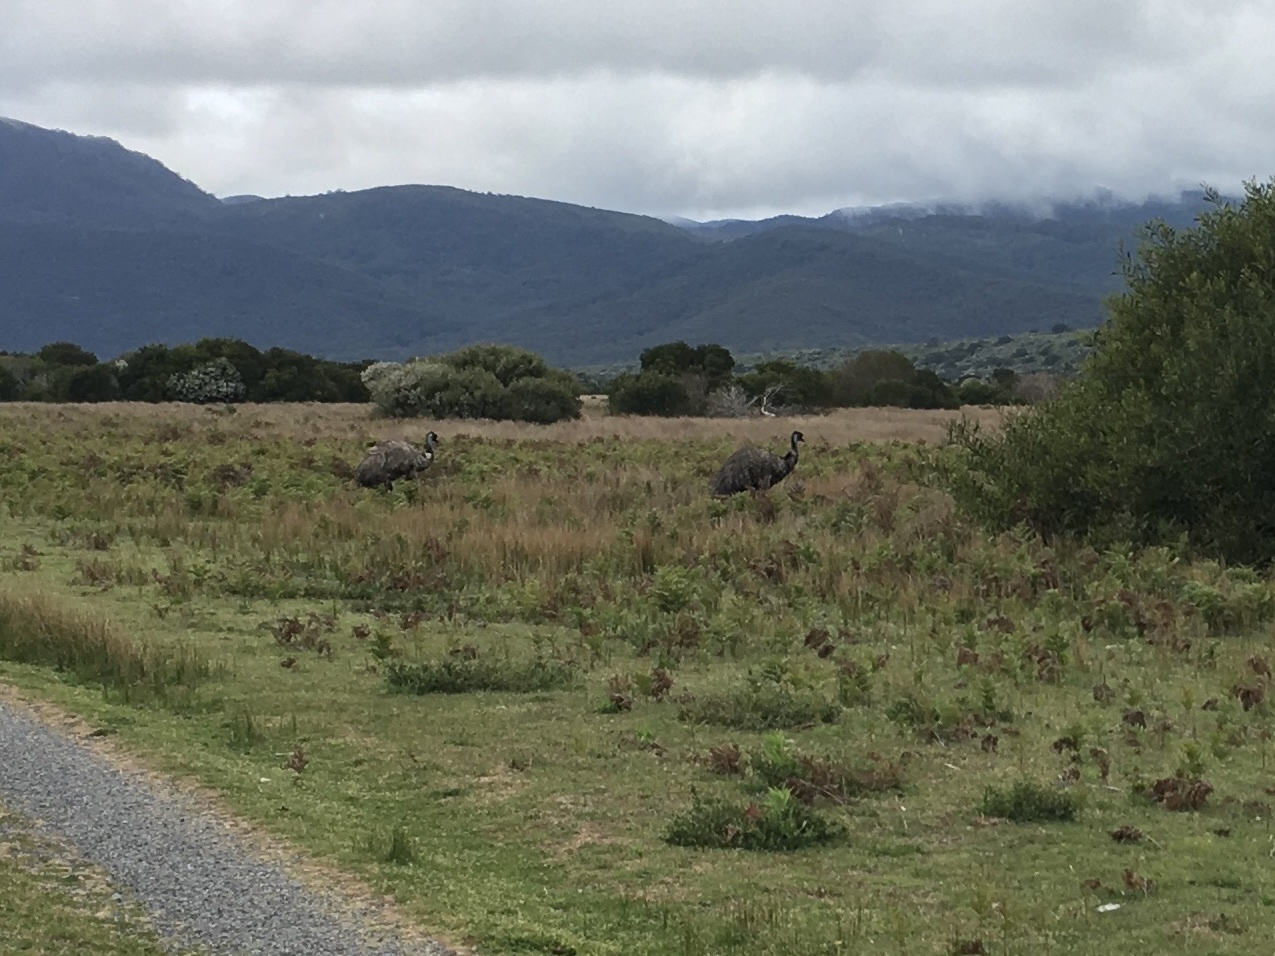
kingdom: Animalia
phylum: Chordata
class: Aves
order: Casuariiformes
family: Dromaiidae
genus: Dromaius
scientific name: Dromaius novaehollandiae
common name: Emu
